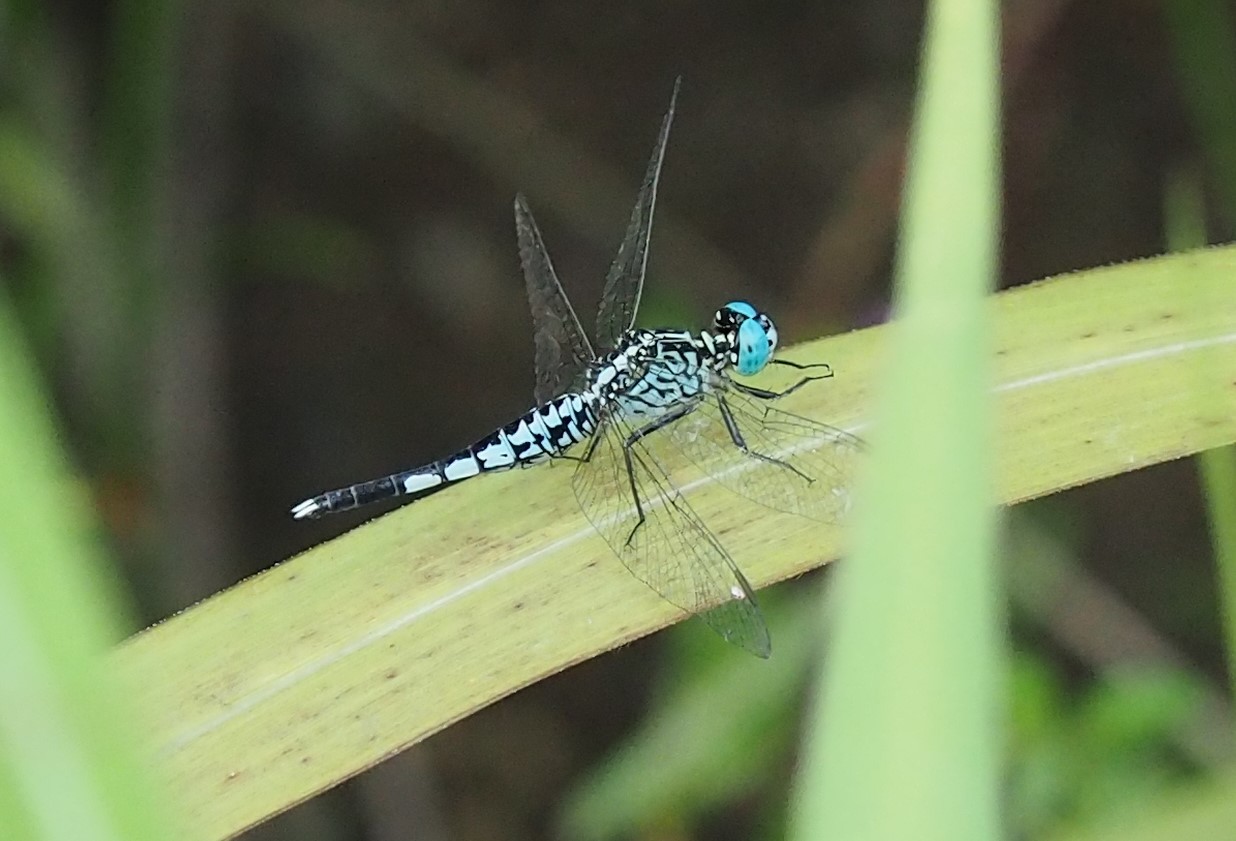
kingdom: Animalia
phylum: Arthropoda
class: Insecta
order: Odonata
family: Libellulidae
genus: Acisoma
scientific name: Acisoma panorpoides
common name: Asian pintail
